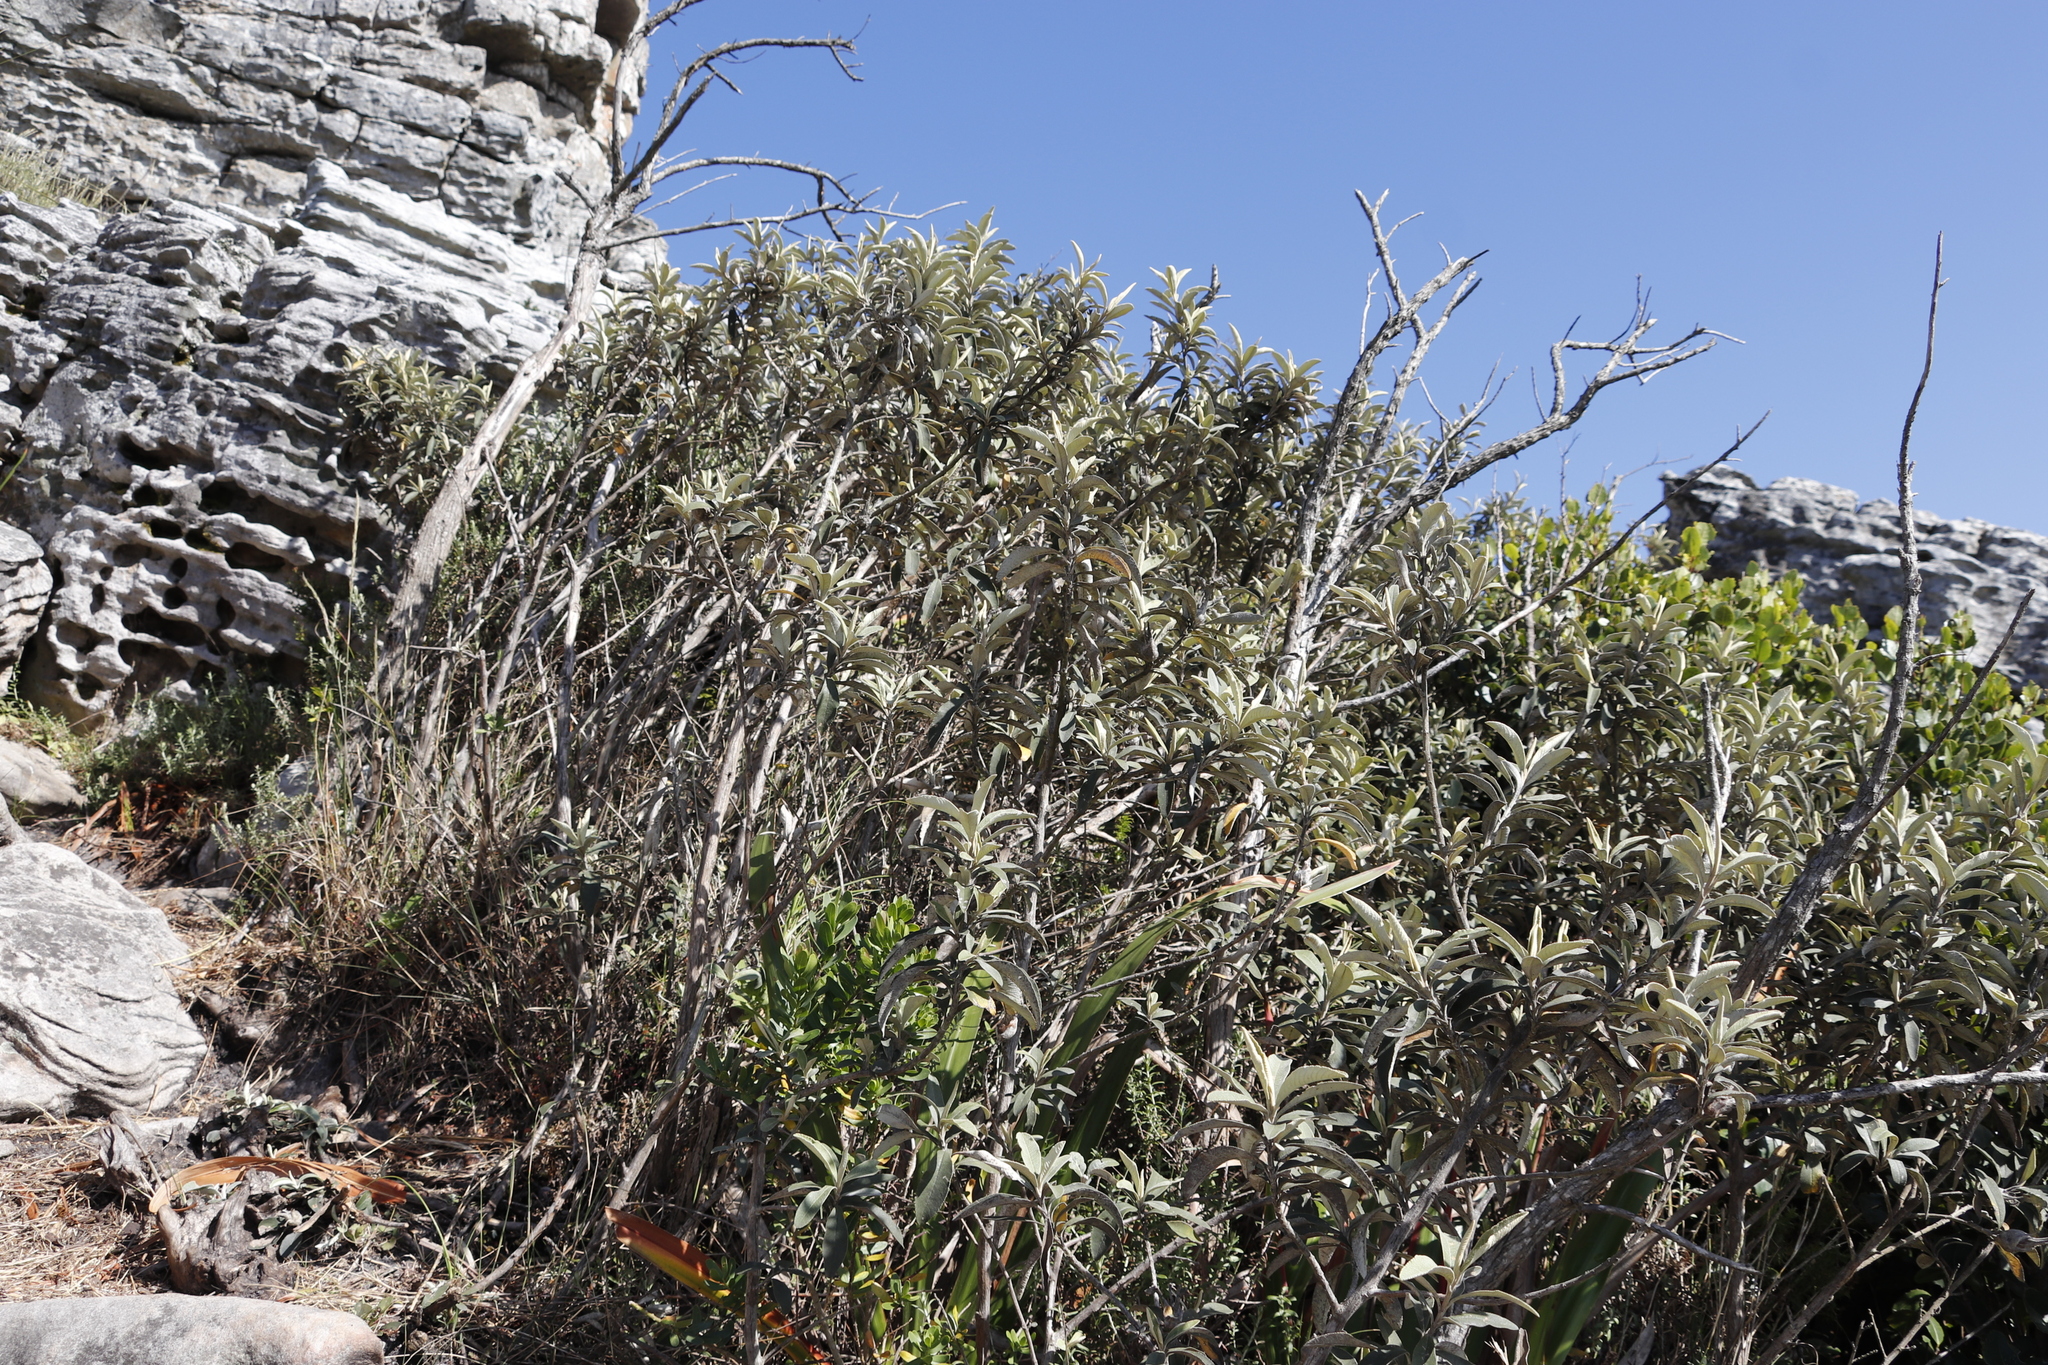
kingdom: Plantae
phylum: Tracheophyta
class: Magnoliopsida
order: Asterales
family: Asteraceae
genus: Tarchonanthus
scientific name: Tarchonanthus littoralis
